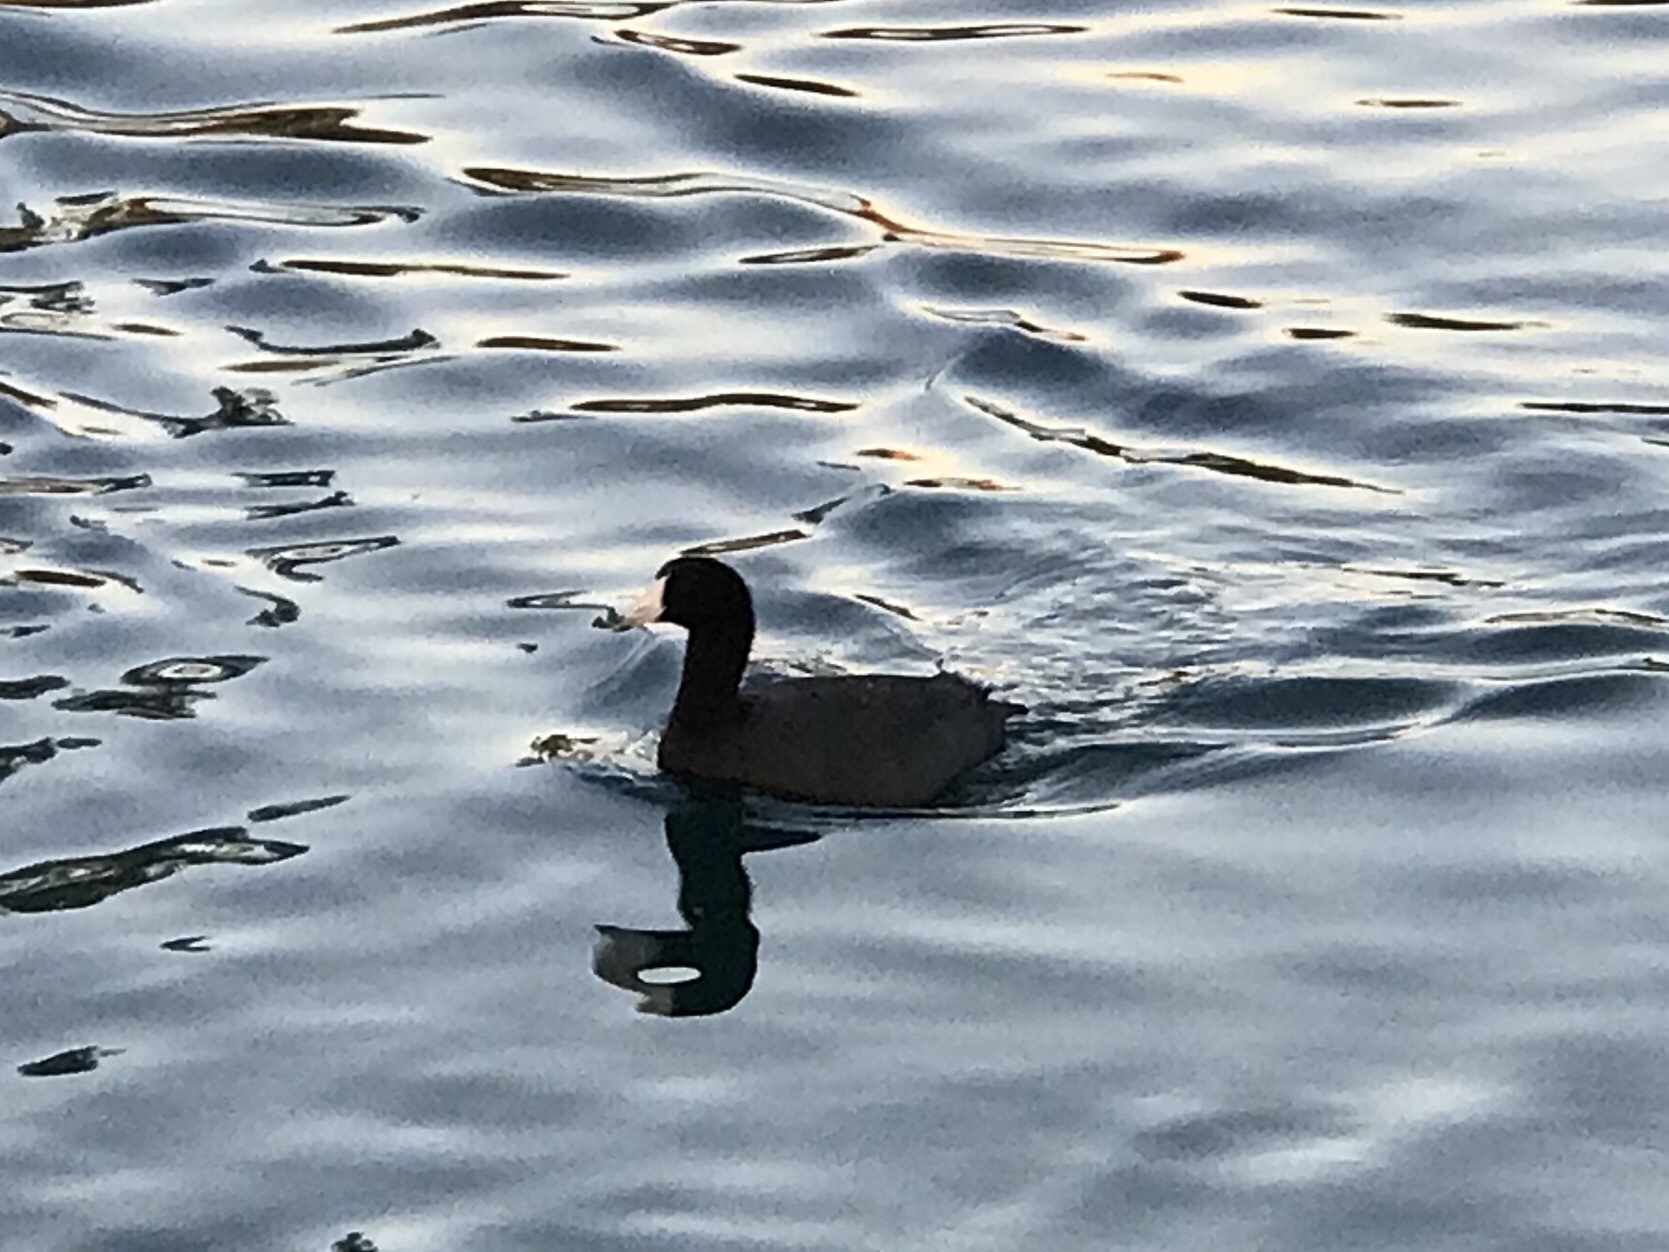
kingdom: Animalia
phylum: Chordata
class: Aves
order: Gruiformes
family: Rallidae
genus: Fulica
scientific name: Fulica americana
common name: American coot
